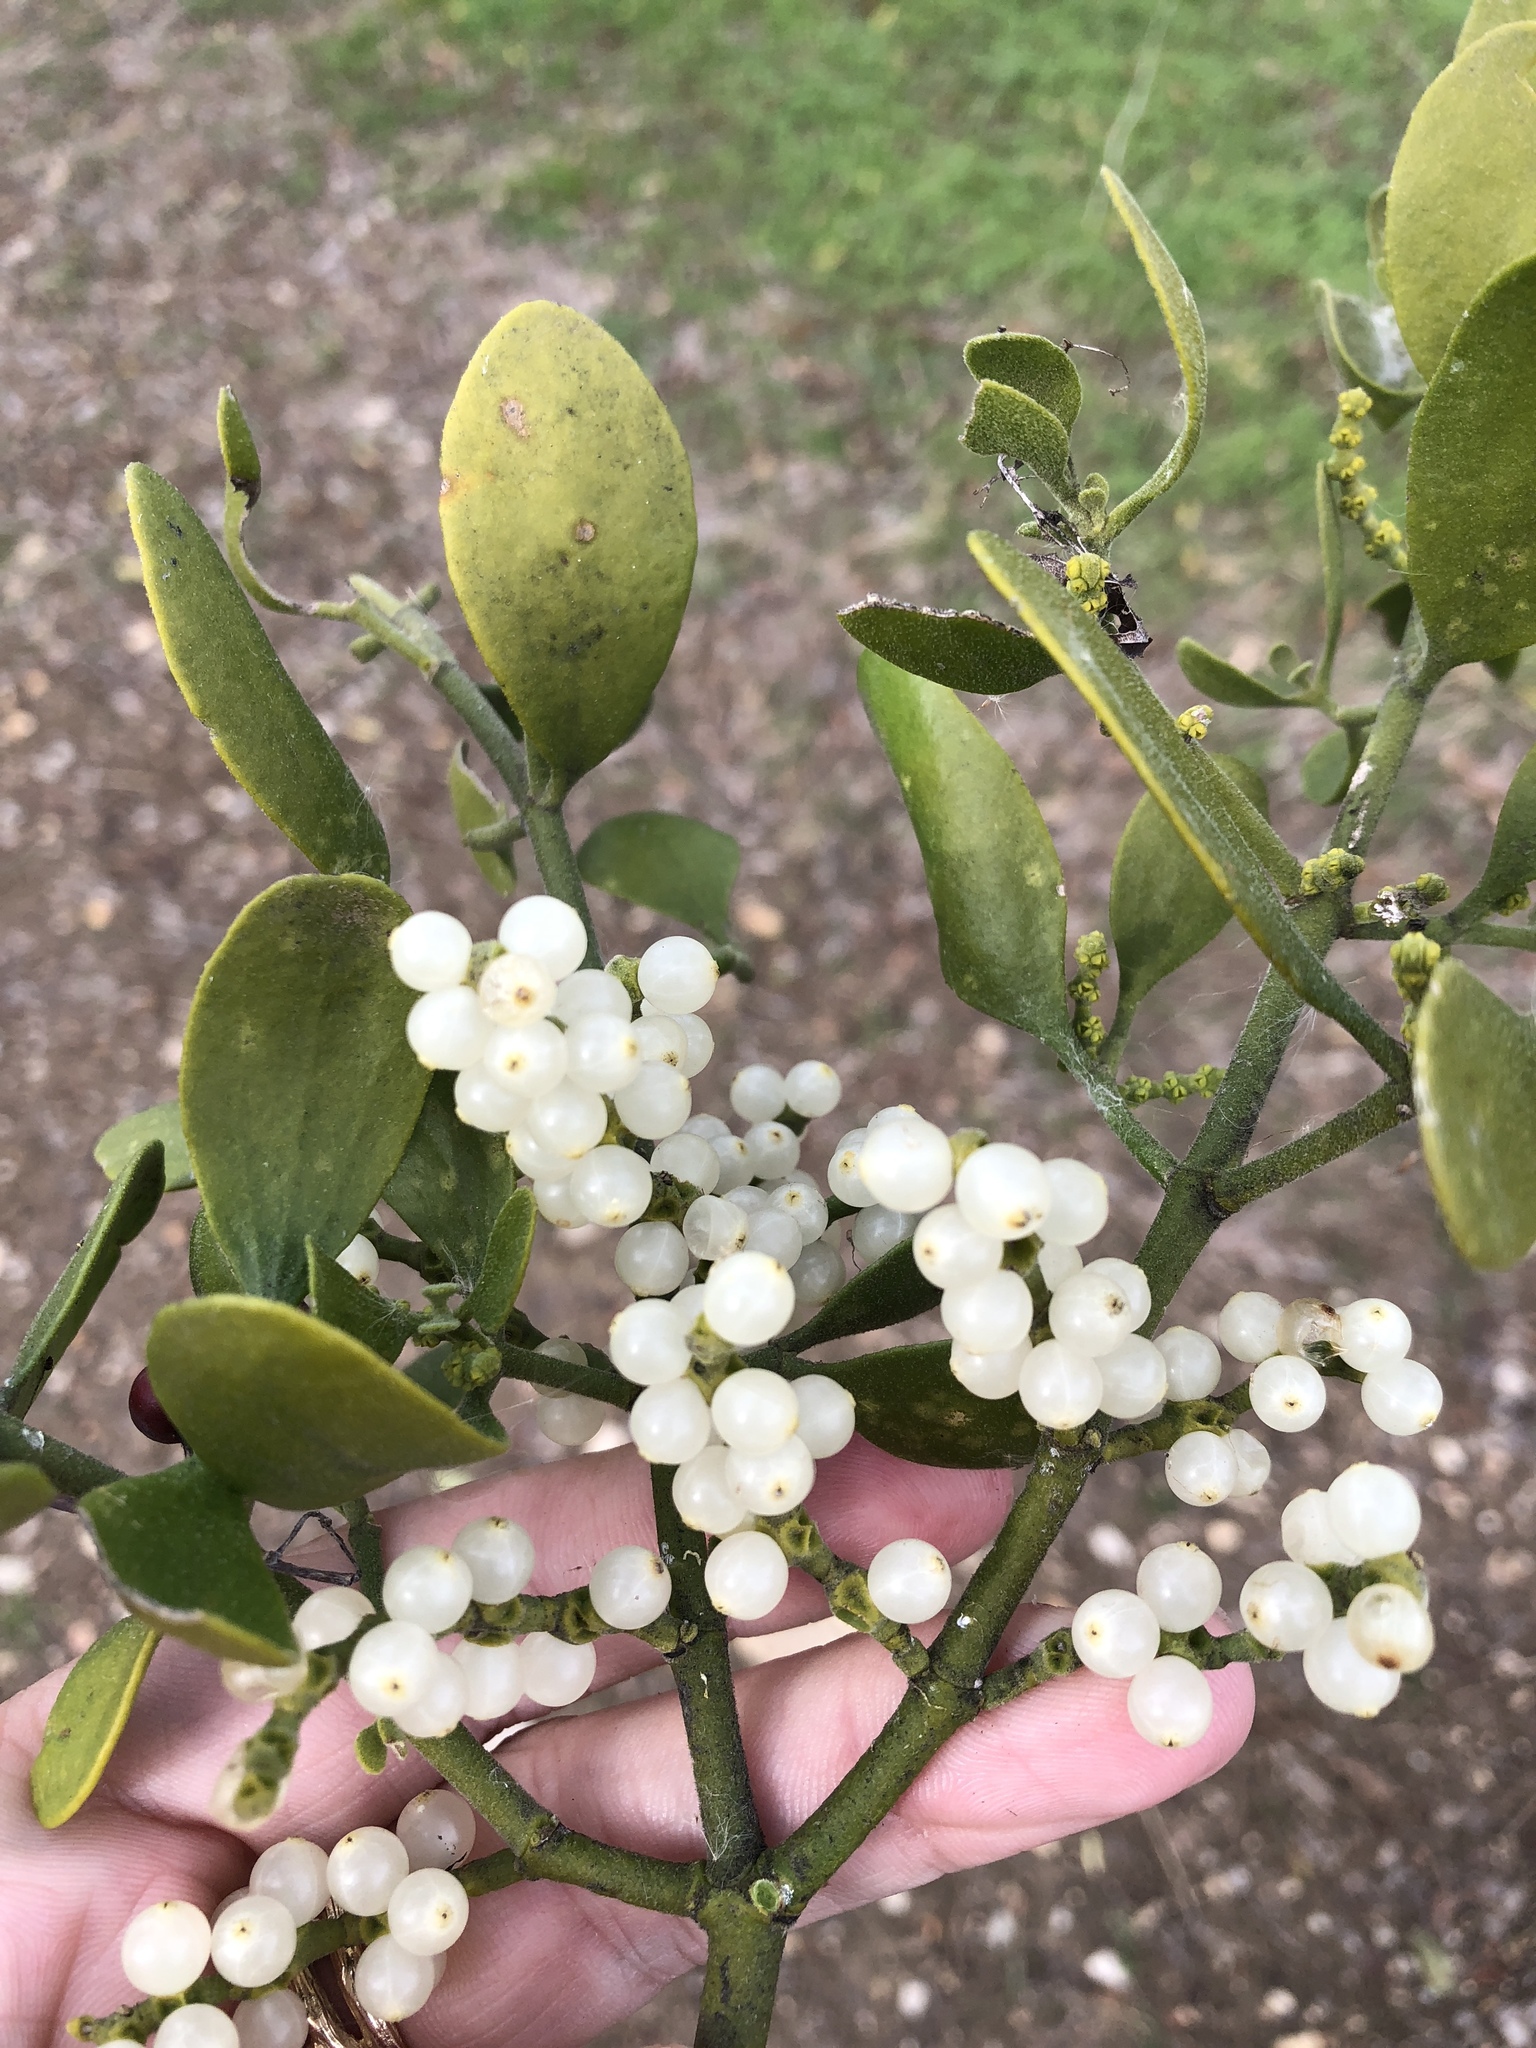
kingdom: Plantae
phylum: Tracheophyta
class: Magnoliopsida
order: Santalales
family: Viscaceae
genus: Phoradendron
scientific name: Phoradendron leucarpum
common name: Pacific mistletoe
